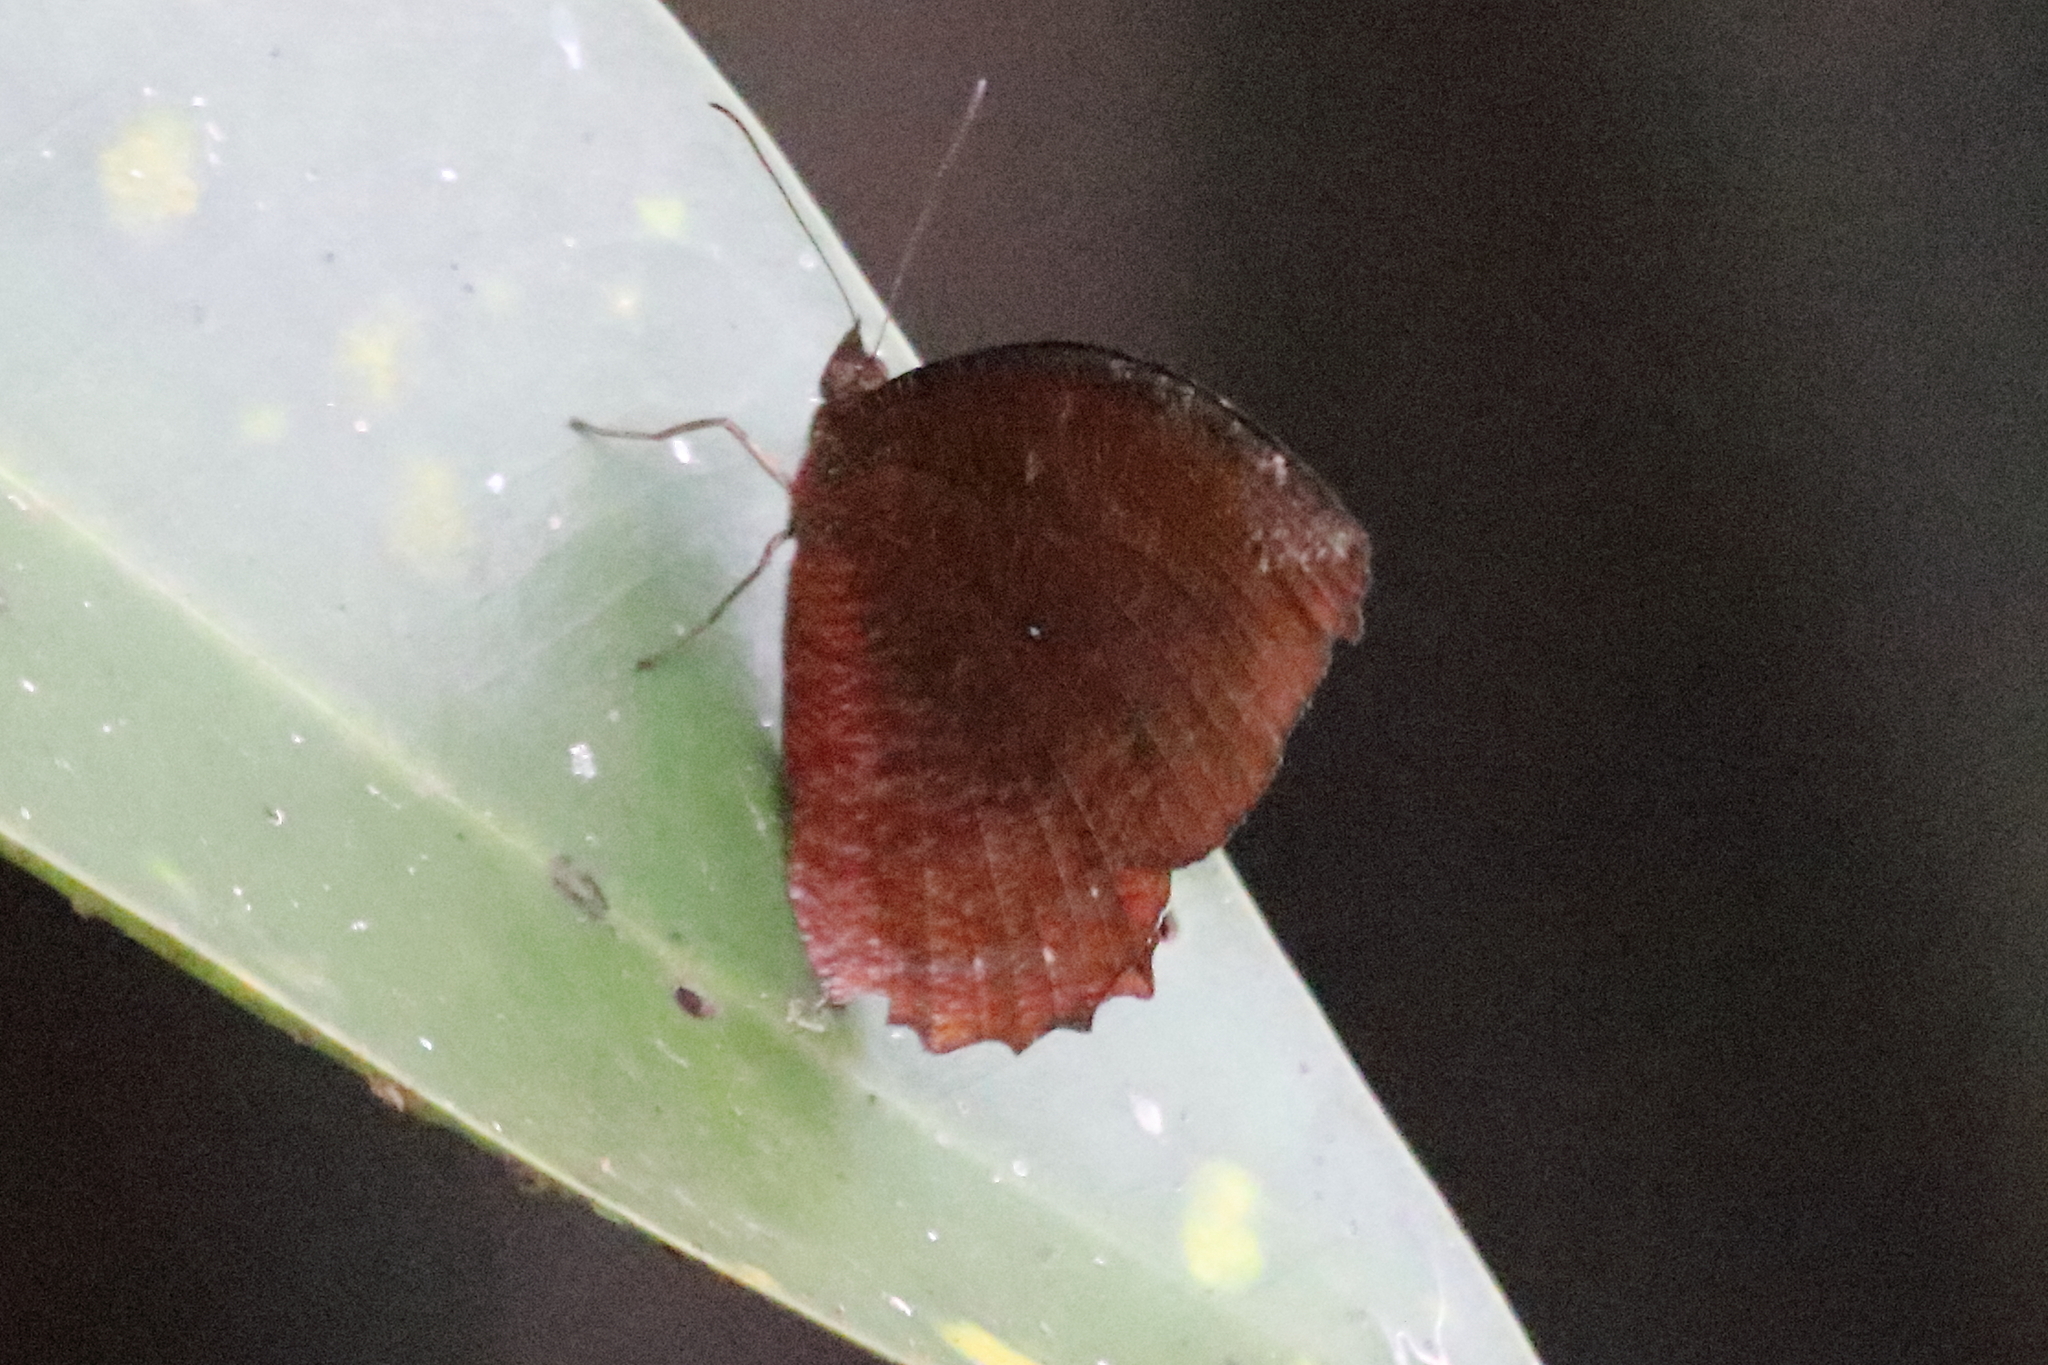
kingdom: Animalia
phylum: Arthropoda
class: Insecta
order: Lepidoptera
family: Nymphalidae
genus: Elymnias
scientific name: Elymnias hypermnestra
